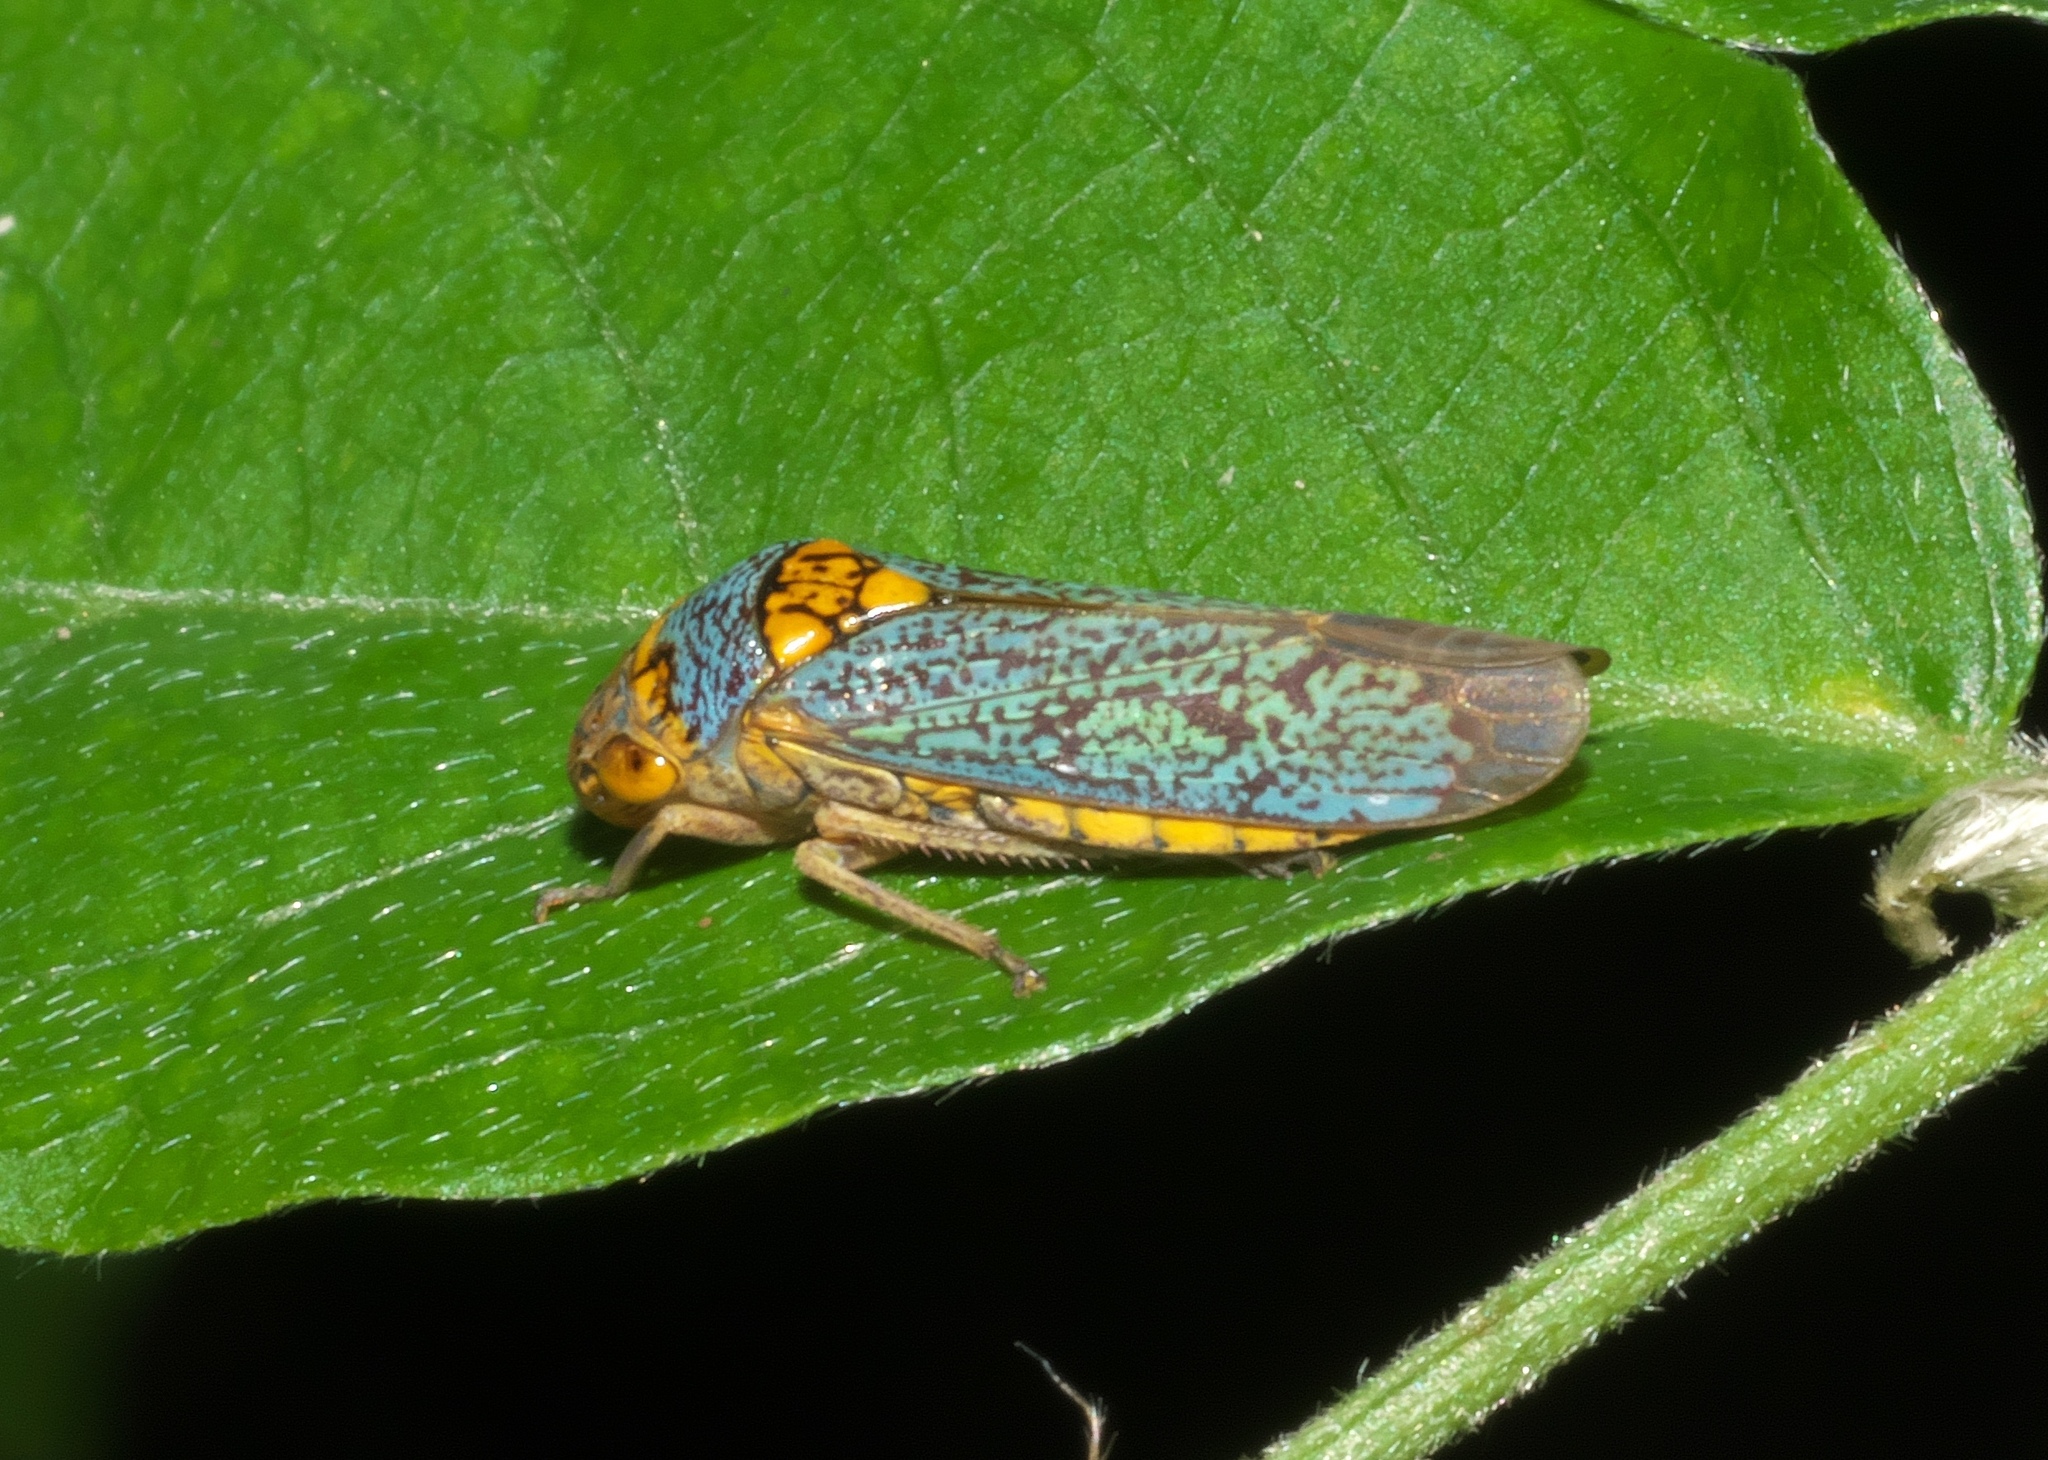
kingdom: Animalia
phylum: Arthropoda
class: Insecta
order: Hemiptera
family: Cicadellidae
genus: Oncometopia
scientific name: Oncometopia orbona
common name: Broad-headed sharpshooter
